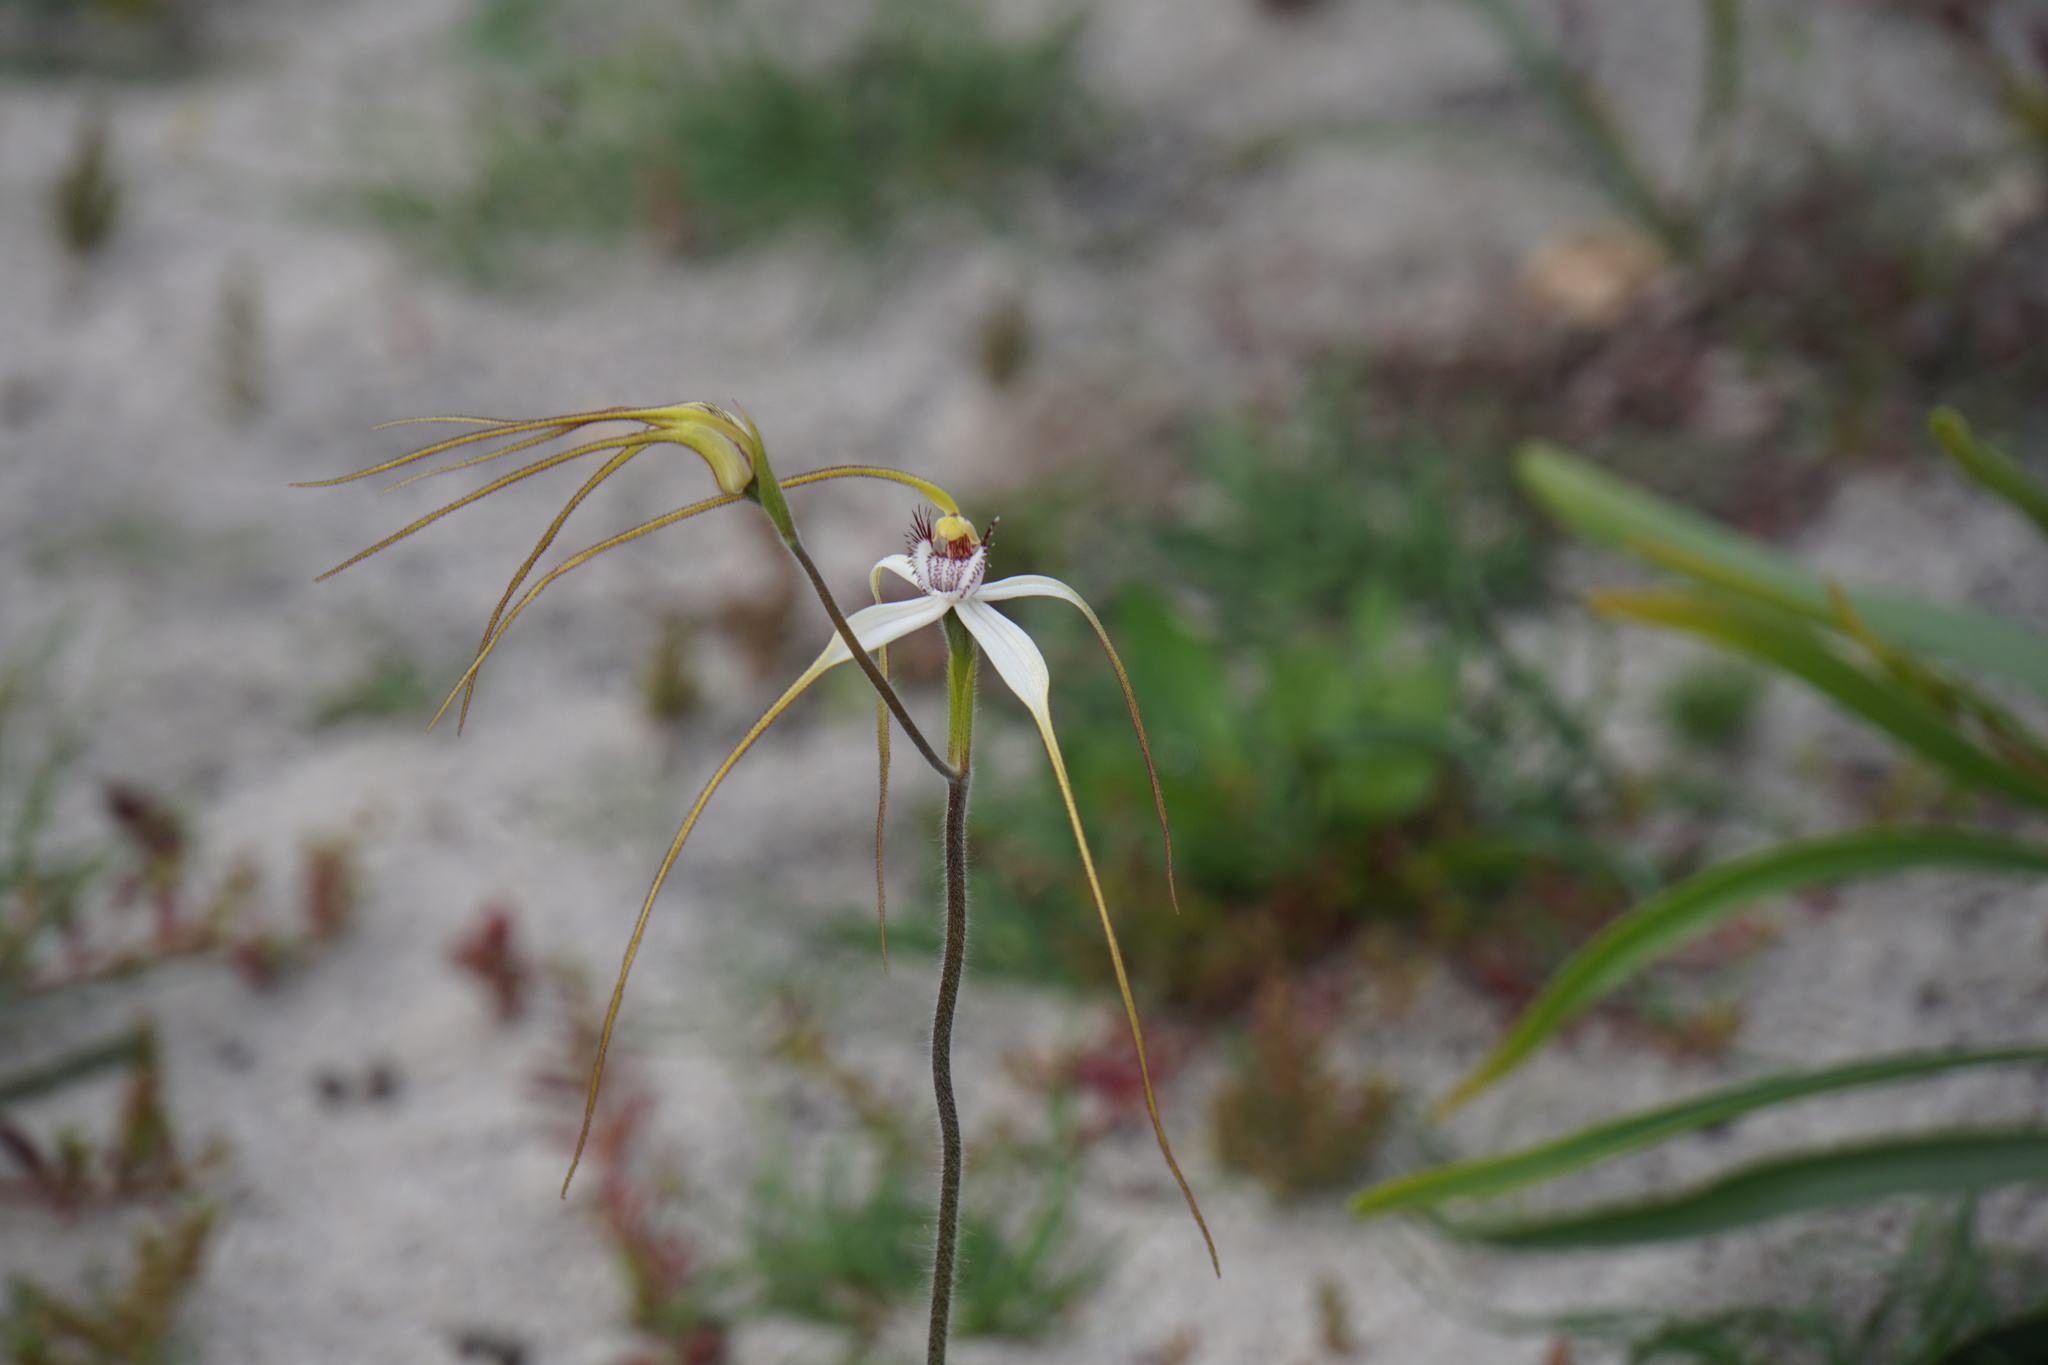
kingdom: Plantae
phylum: Tracheophyta
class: Liliopsida
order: Asparagales
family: Orchidaceae
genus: Caladenia
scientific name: Caladenia longicauda
